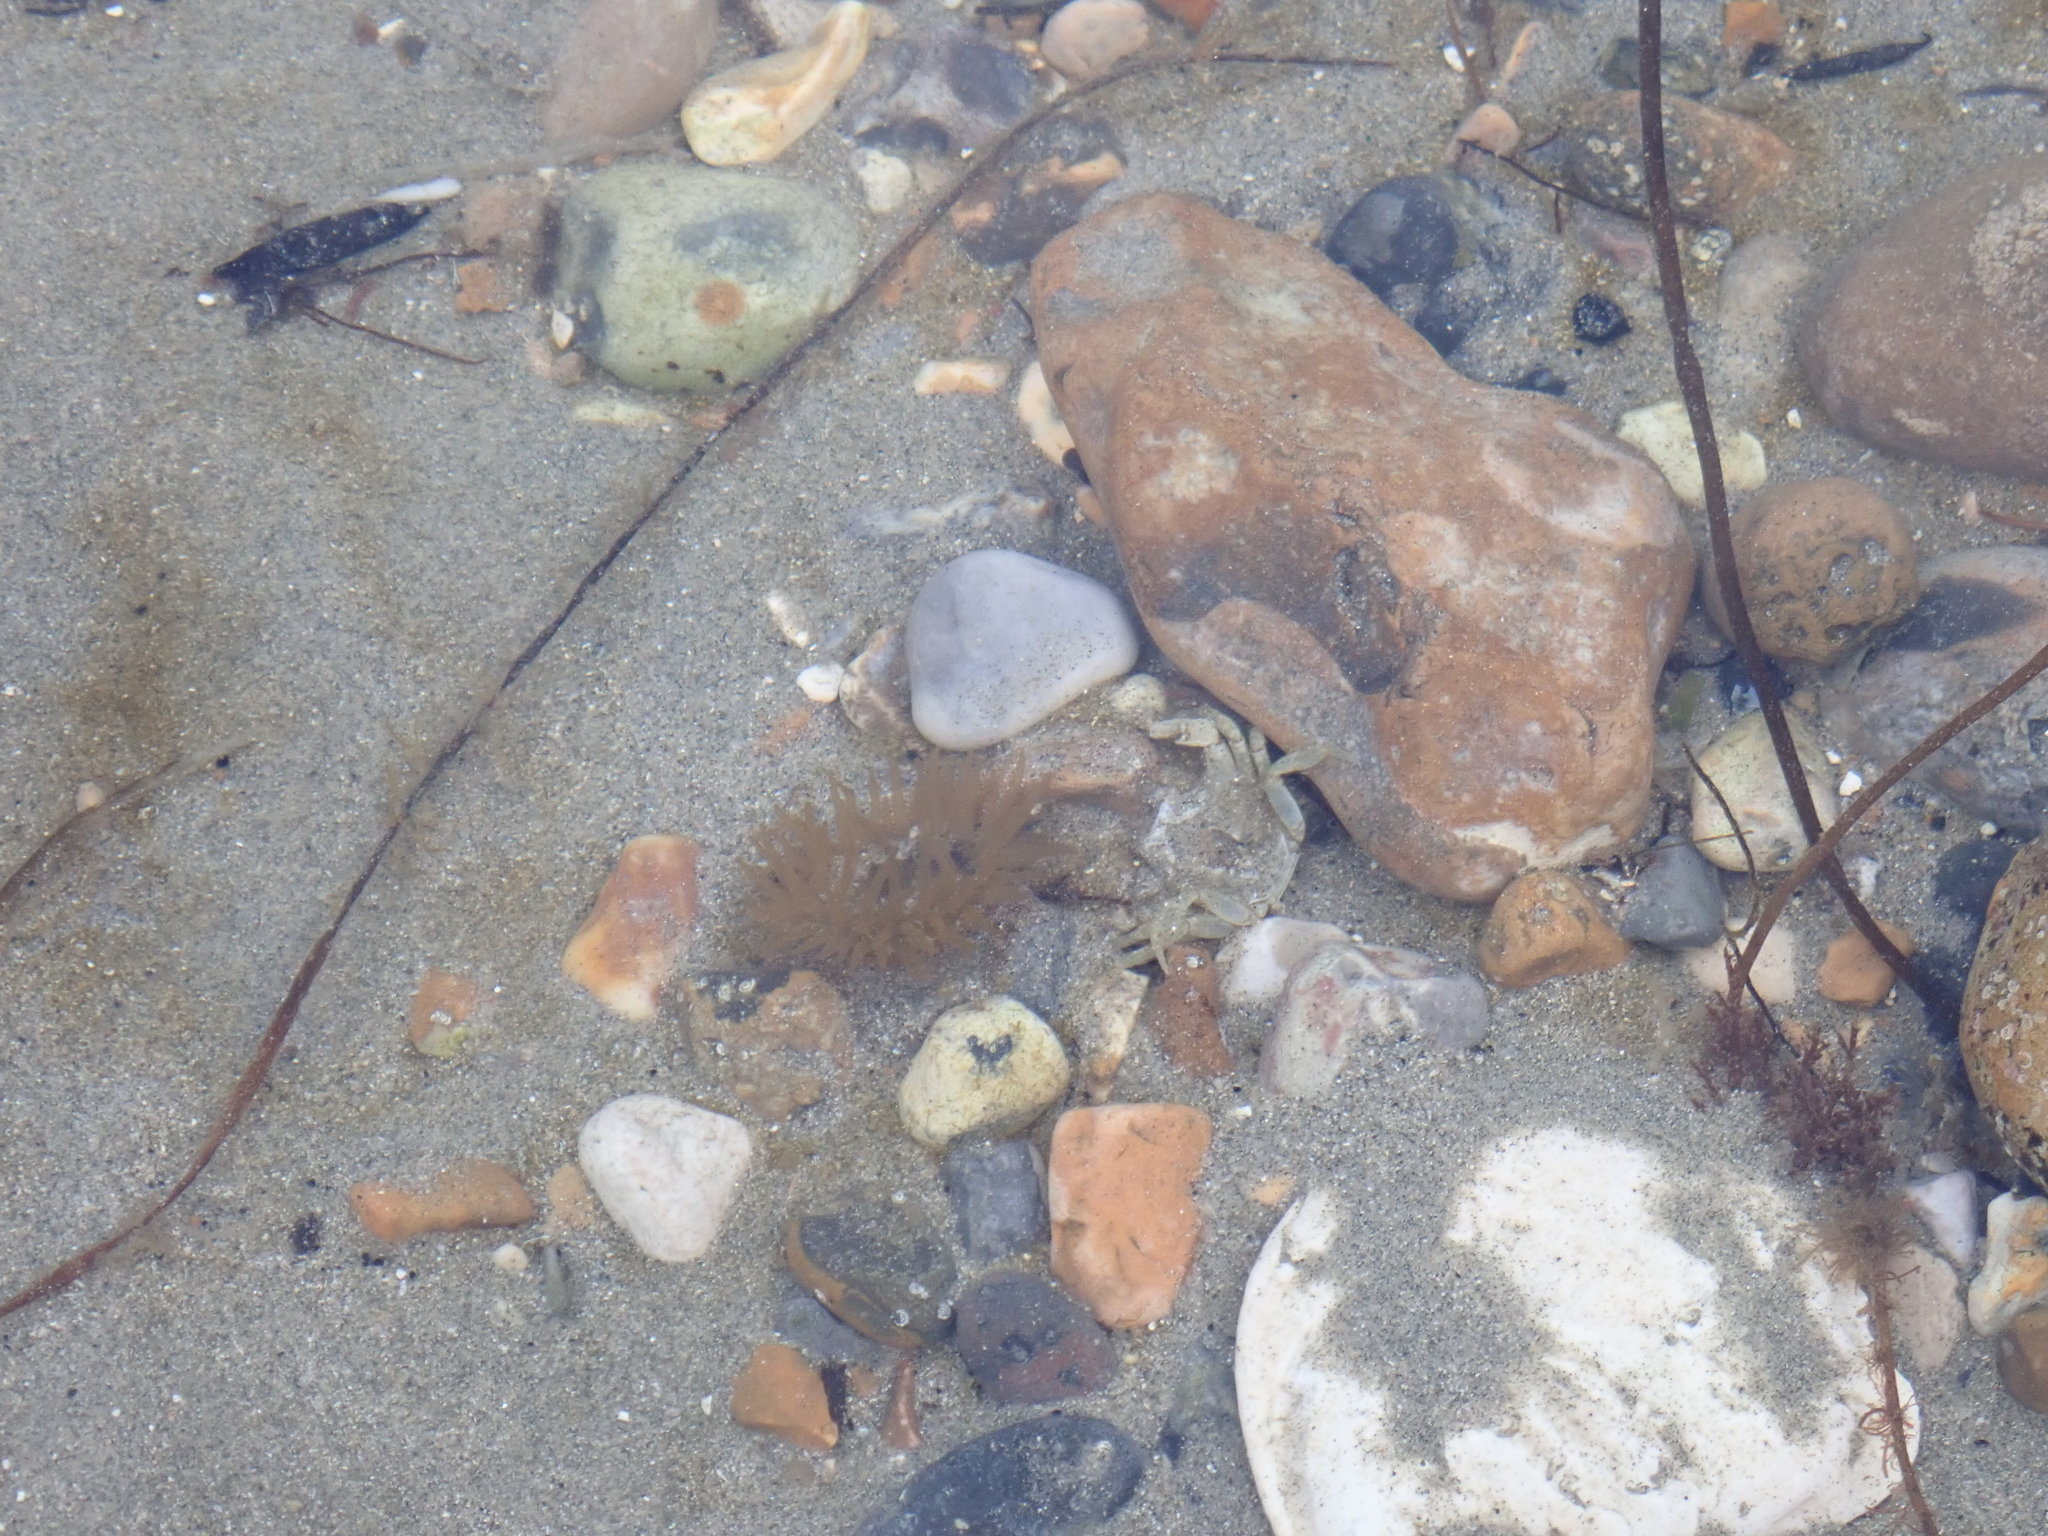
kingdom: Animalia
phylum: Cnidaria
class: Anthozoa
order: Actiniaria
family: Actiniidae
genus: Actinia
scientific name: Actinia equina
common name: Beadlet anemone
